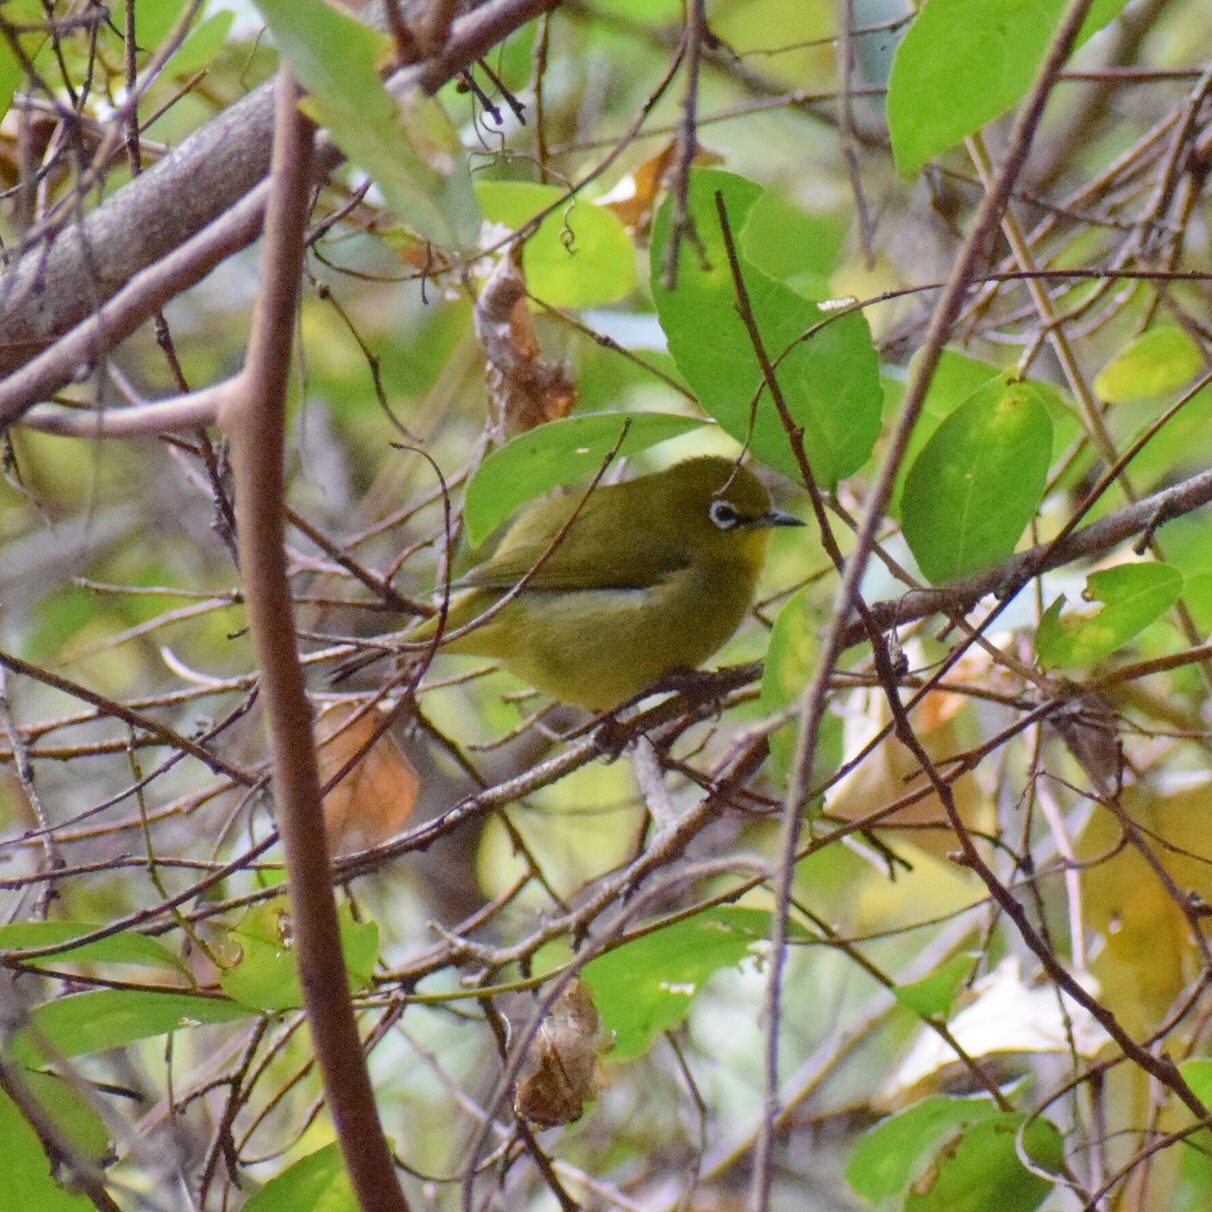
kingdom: Animalia
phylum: Chordata
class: Aves
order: Passeriformes
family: Zosteropidae
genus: Zosterops
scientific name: Zosterops virens
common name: Cape white-eye
